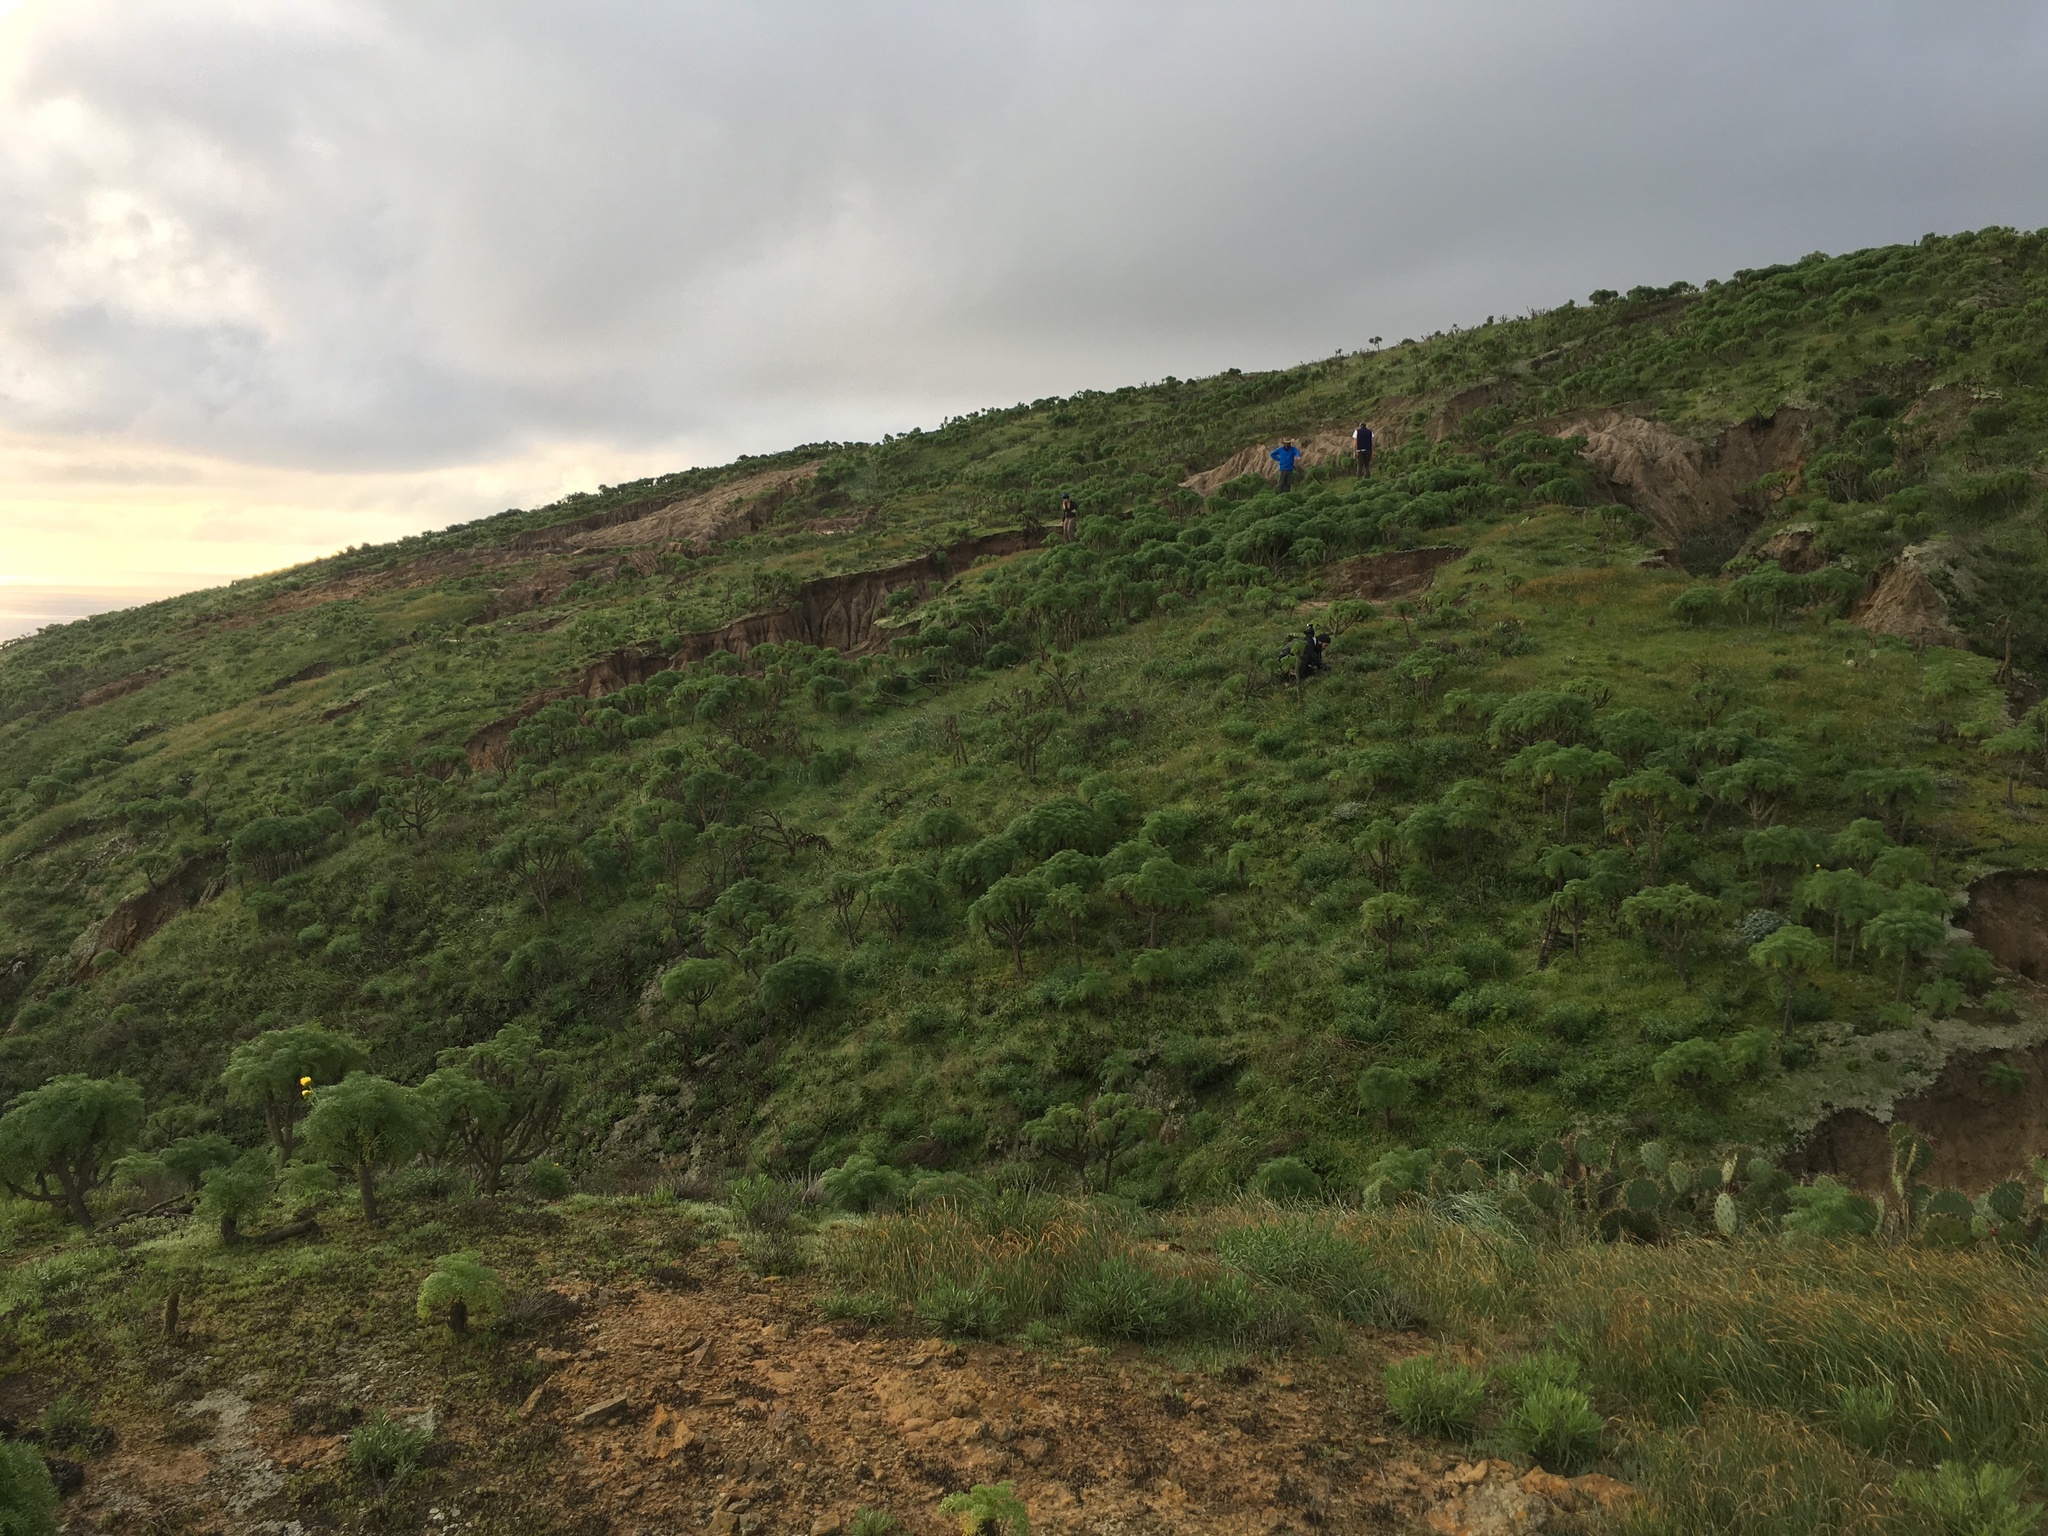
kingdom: Plantae
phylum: Tracheophyta
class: Magnoliopsida
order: Asterales
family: Asteraceae
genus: Coreopsis
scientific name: Coreopsis gigantea
